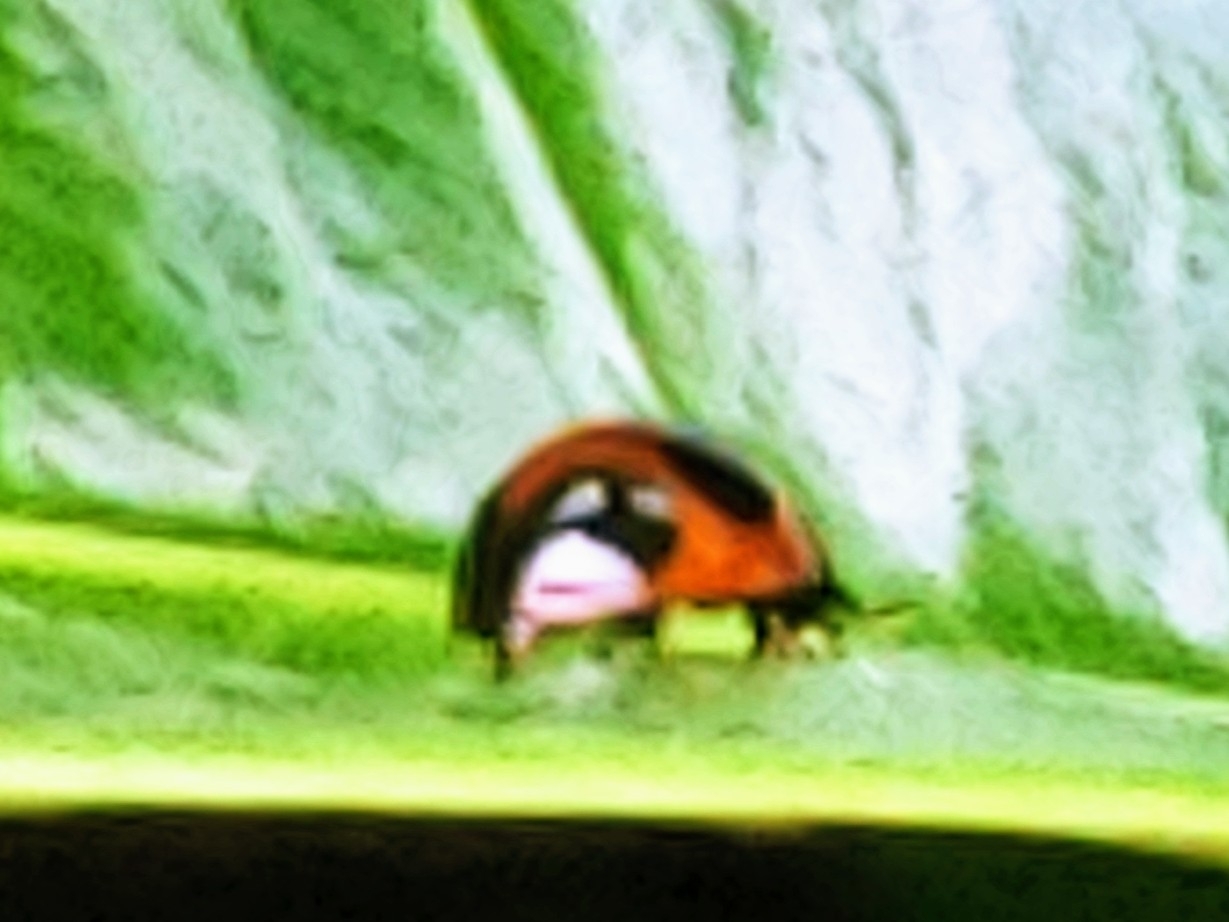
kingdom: Animalia
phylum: Arthropoda
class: Insecta
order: Coleoptera
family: Coccinellidae
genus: Exochomus
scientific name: Exochomus childreni
